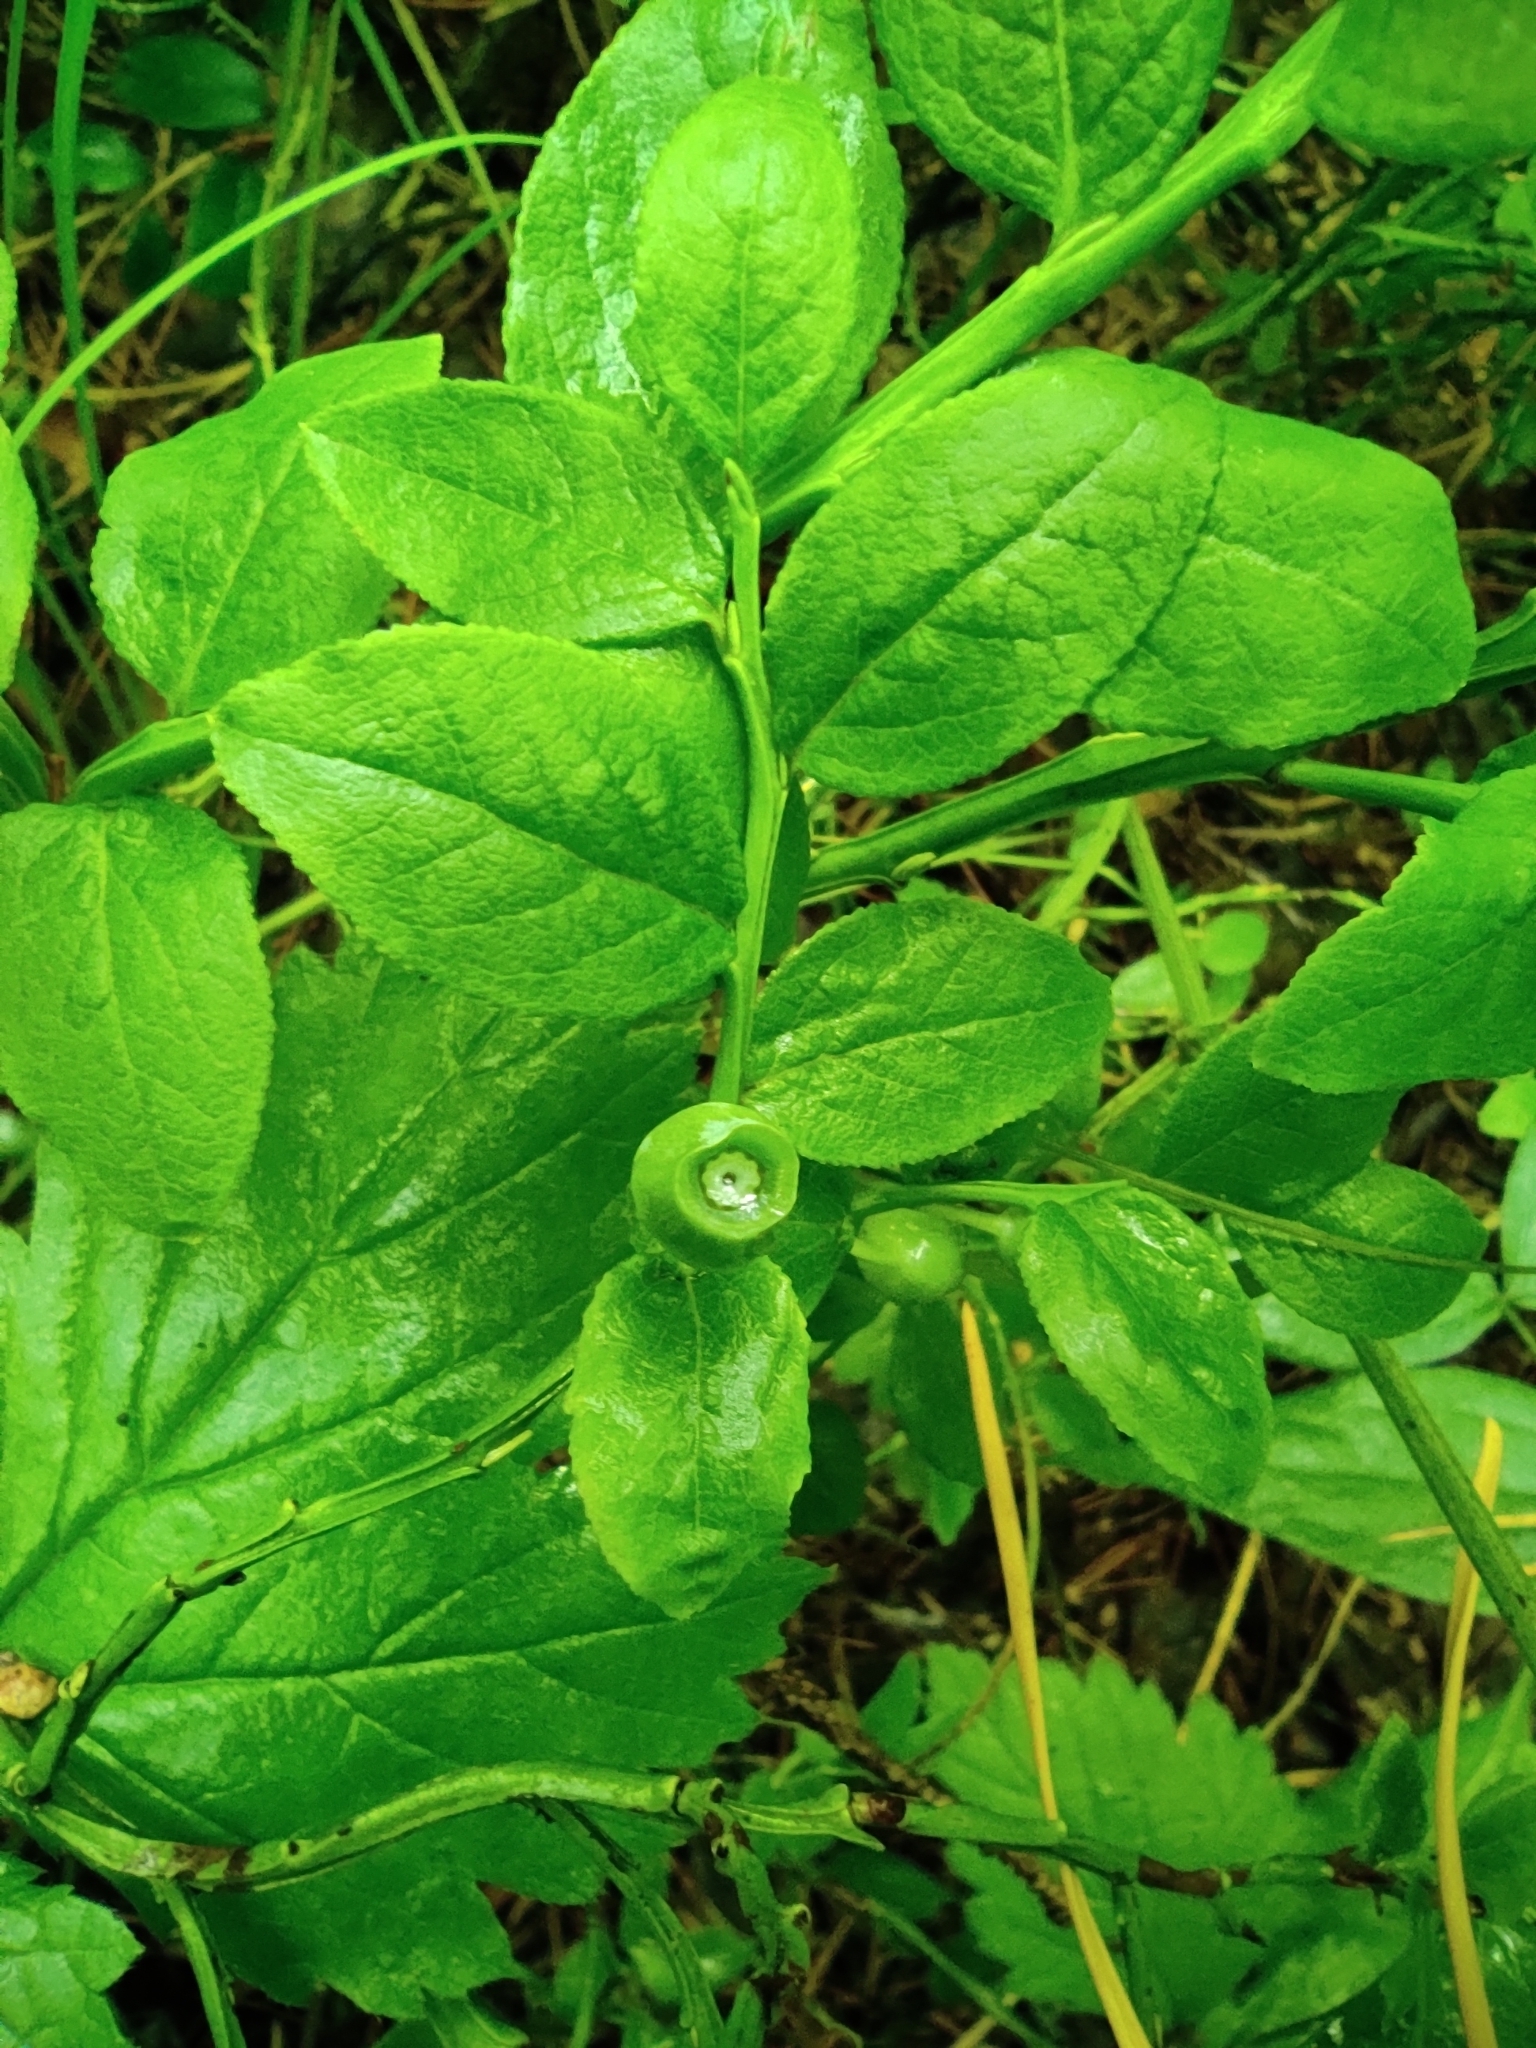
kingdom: Plantae
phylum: Tracheophyta
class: Magnoliopsida
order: Ericales
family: Ericaceae
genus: Vaccinium
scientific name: Vaccinium myrtillus
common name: Bilberry
